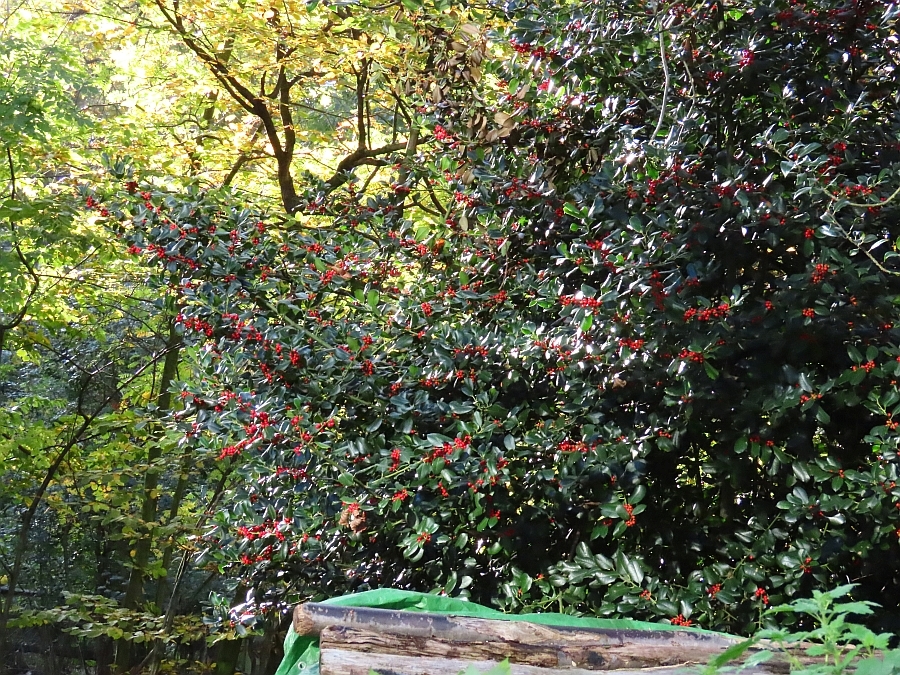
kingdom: Plantae
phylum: Tracheophyta
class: Magnoliopsida
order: Aquifoliales
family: Aquifoliaceae
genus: Ilex
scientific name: Ilex aquifolium
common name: English holly
